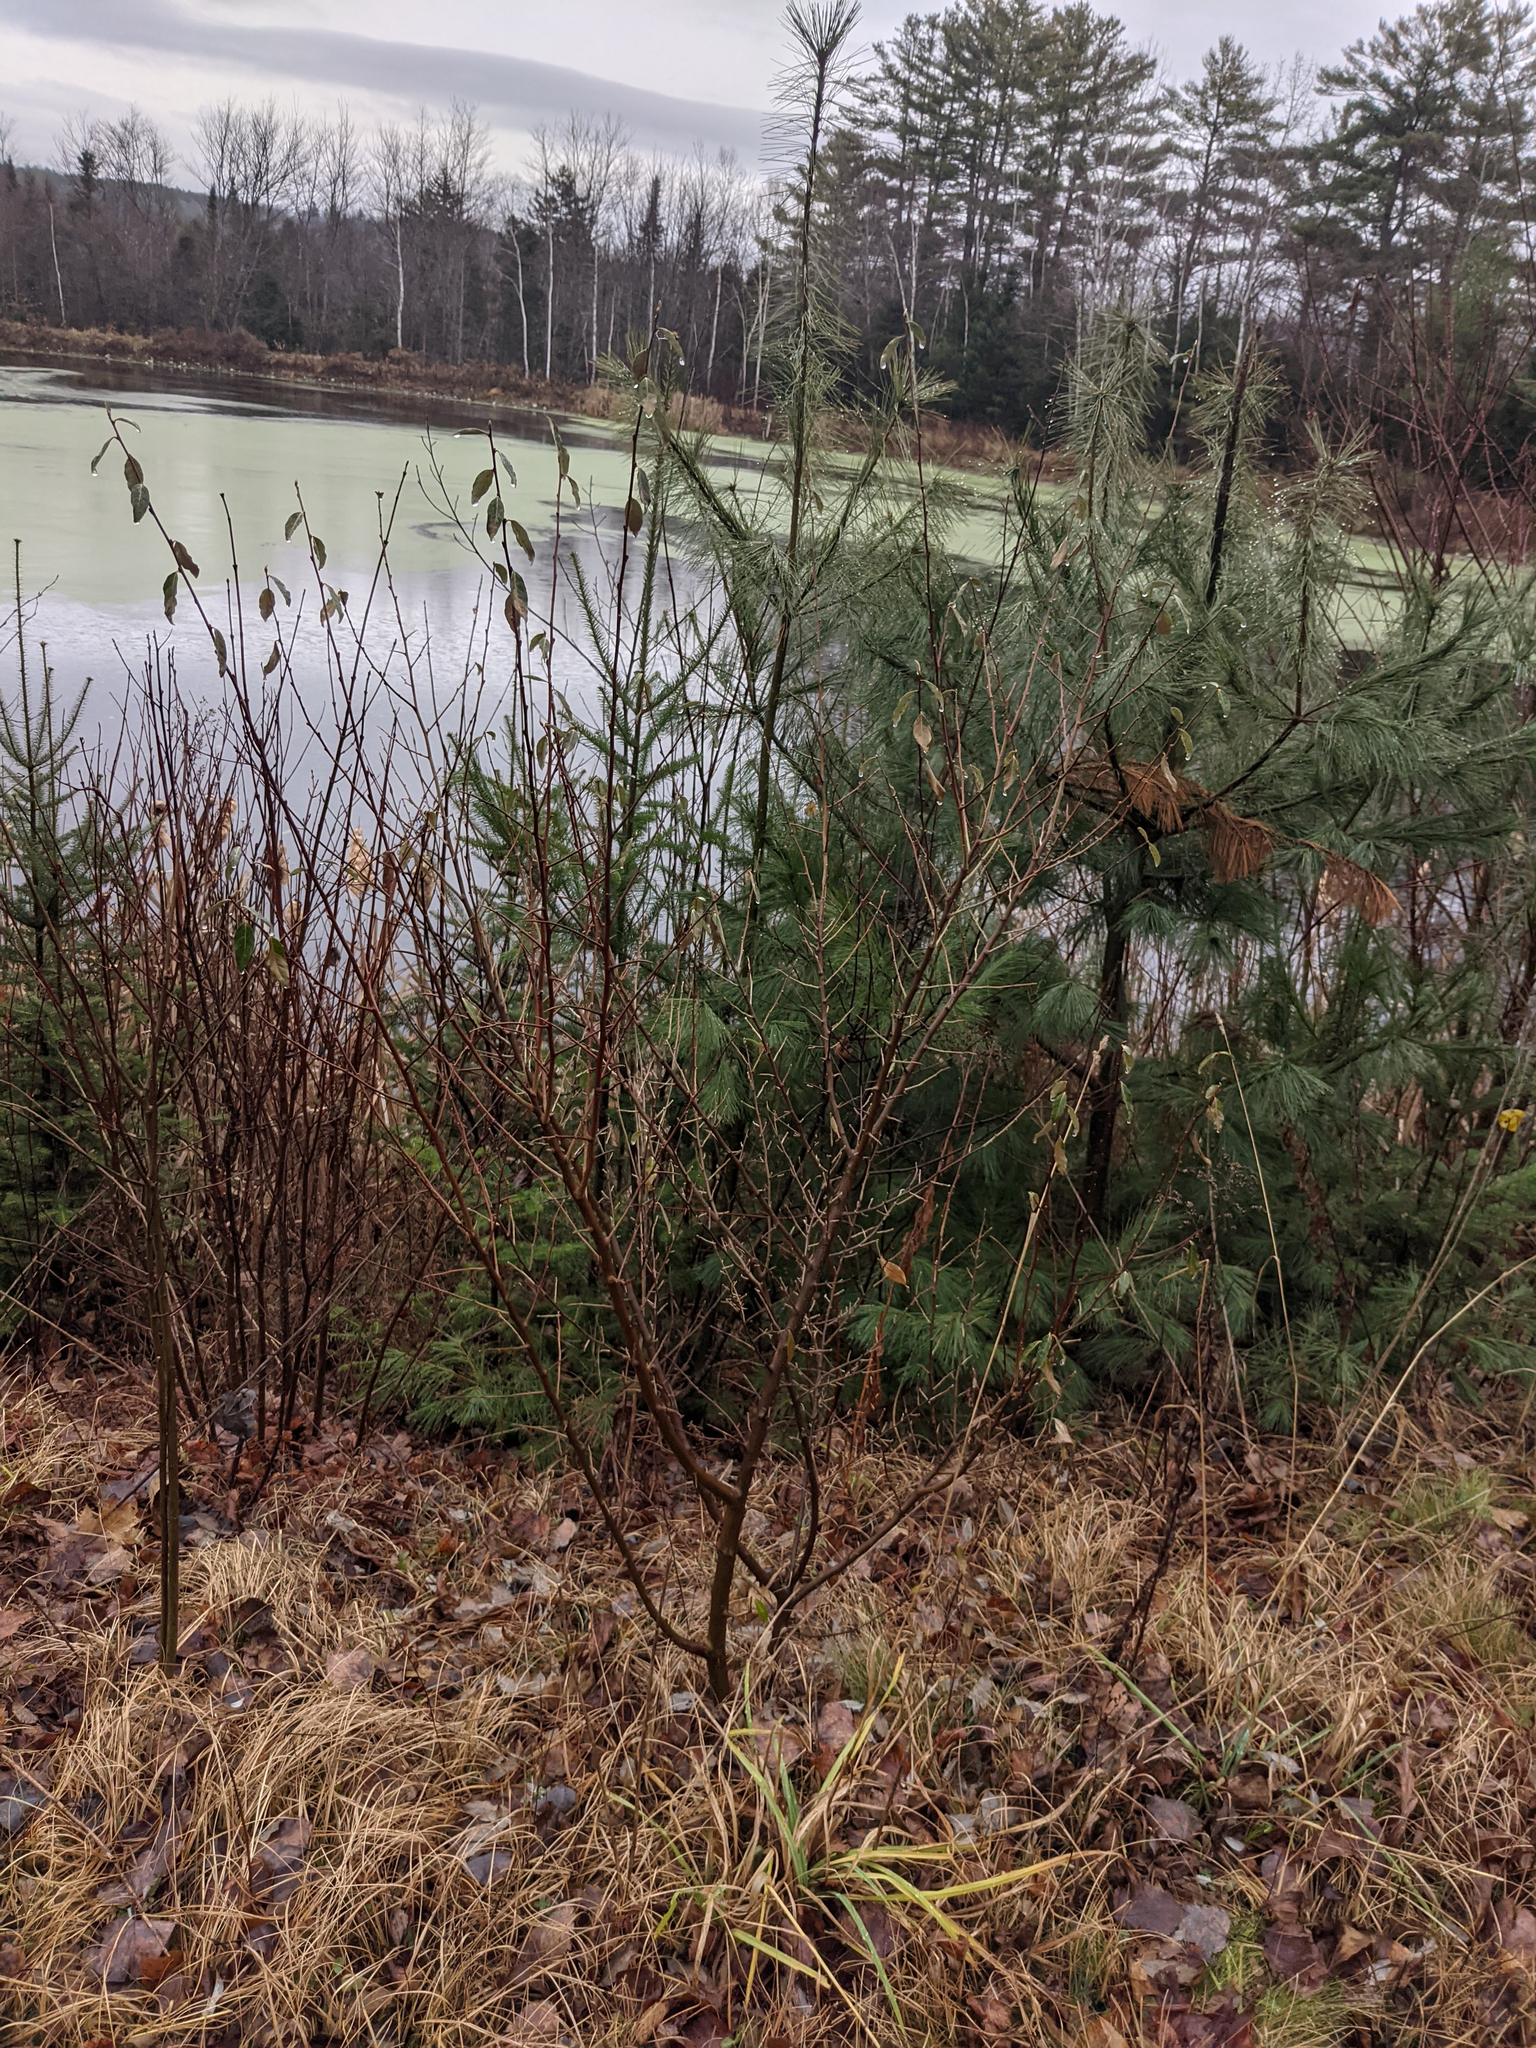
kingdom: Plantae
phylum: Tracheophyta
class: Magnoliopsida
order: Rosales
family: Elaeagnaceae
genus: Elaeagnus
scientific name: Elaeagnus umbellata
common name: Autumn olive
